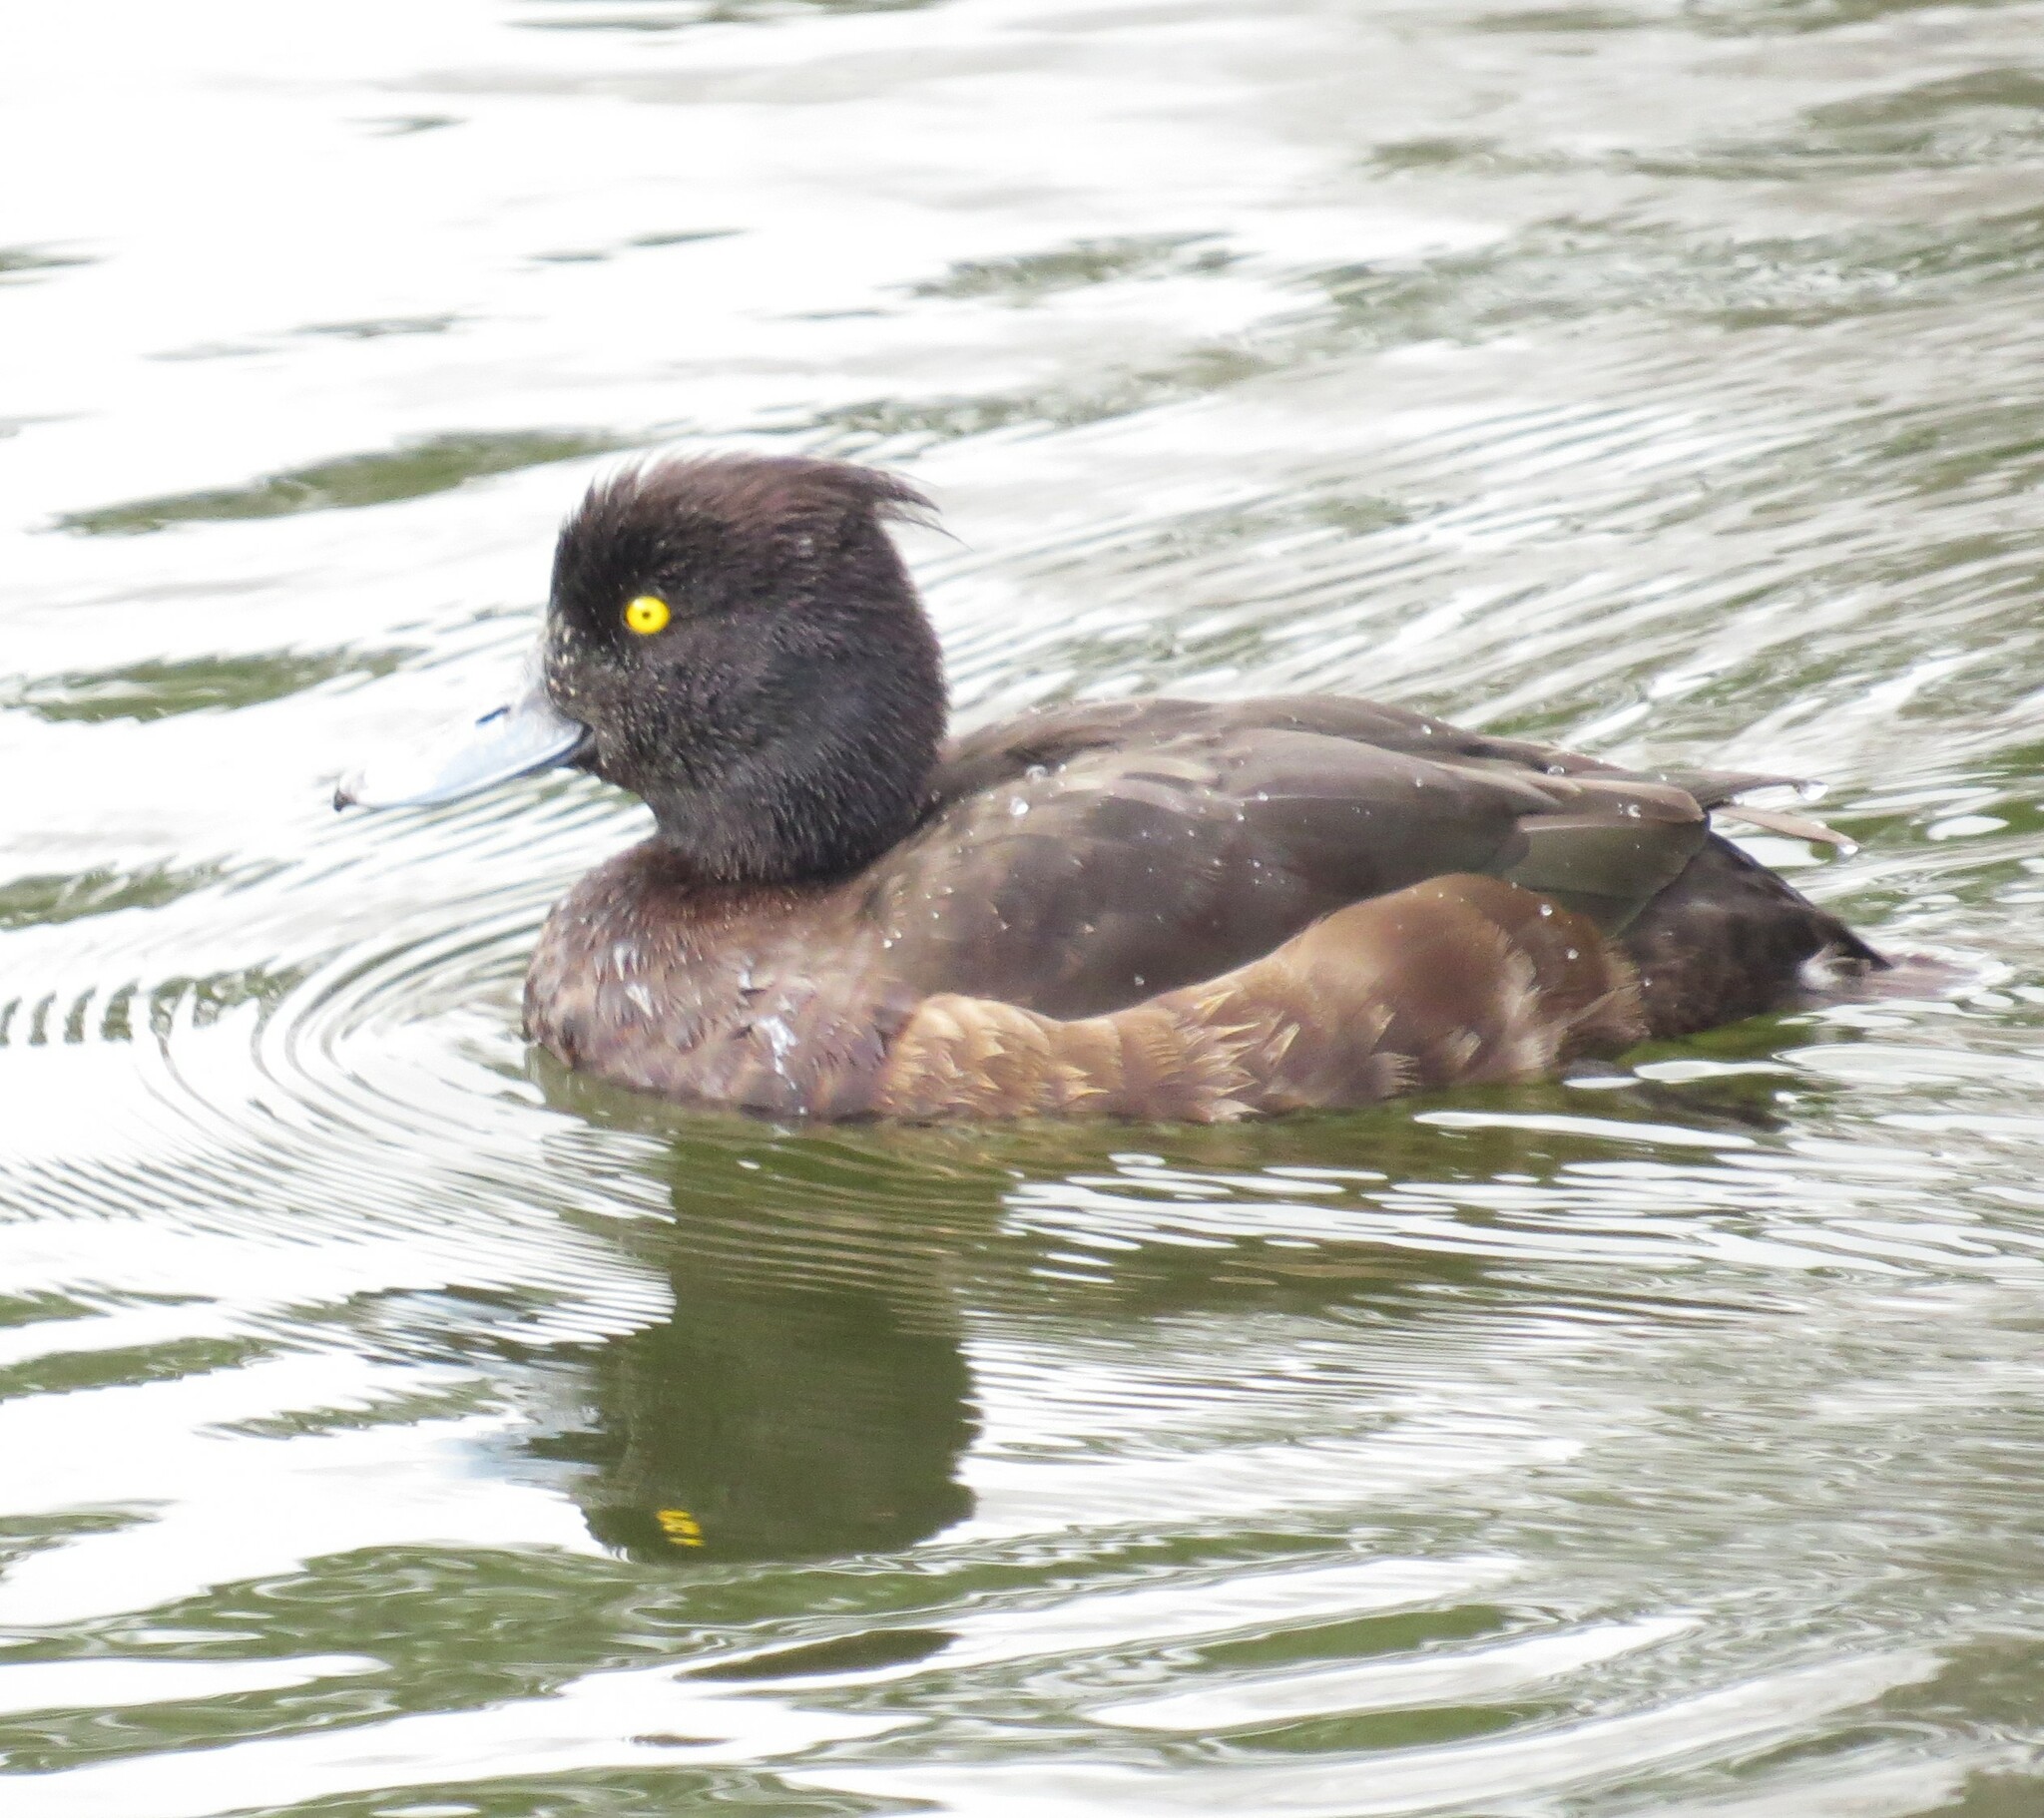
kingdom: Animalia
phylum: Chordata
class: Aves
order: Anseriformes
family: Anatidae
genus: Aythya
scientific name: Aythya fuligula
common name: Tufted duck
